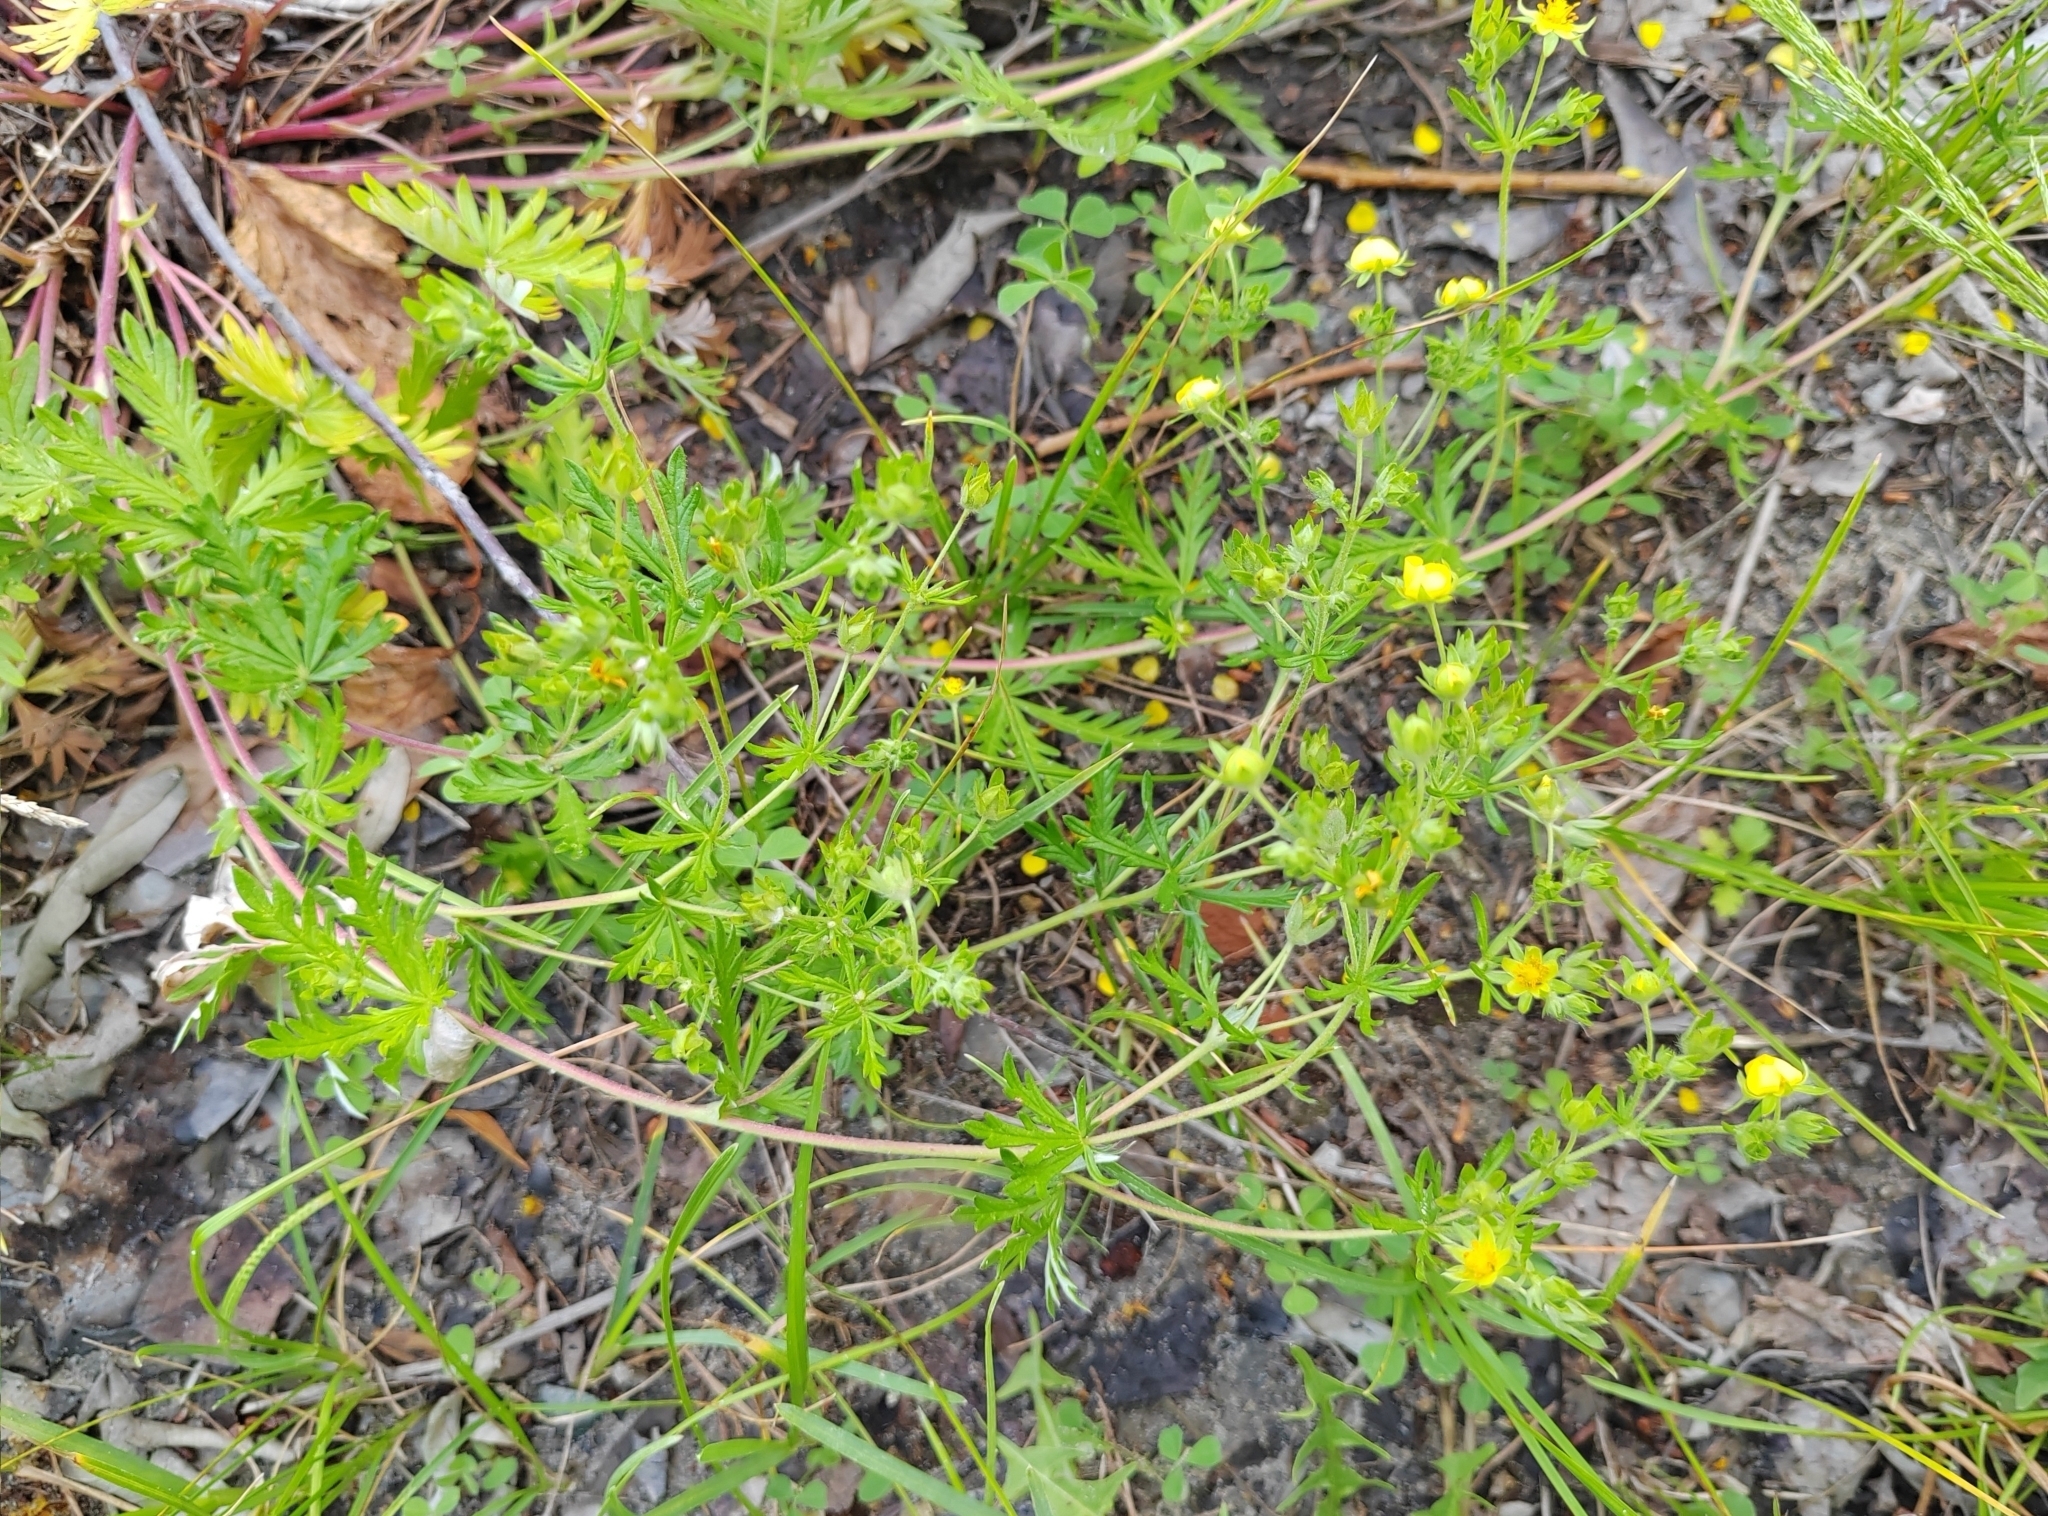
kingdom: Plantae
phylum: Tracheophyta
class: Magnoliopsida
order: Rosales
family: Rosaceae
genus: Potentilla
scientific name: Potentilla argentea
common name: Hoary cinquefoil
